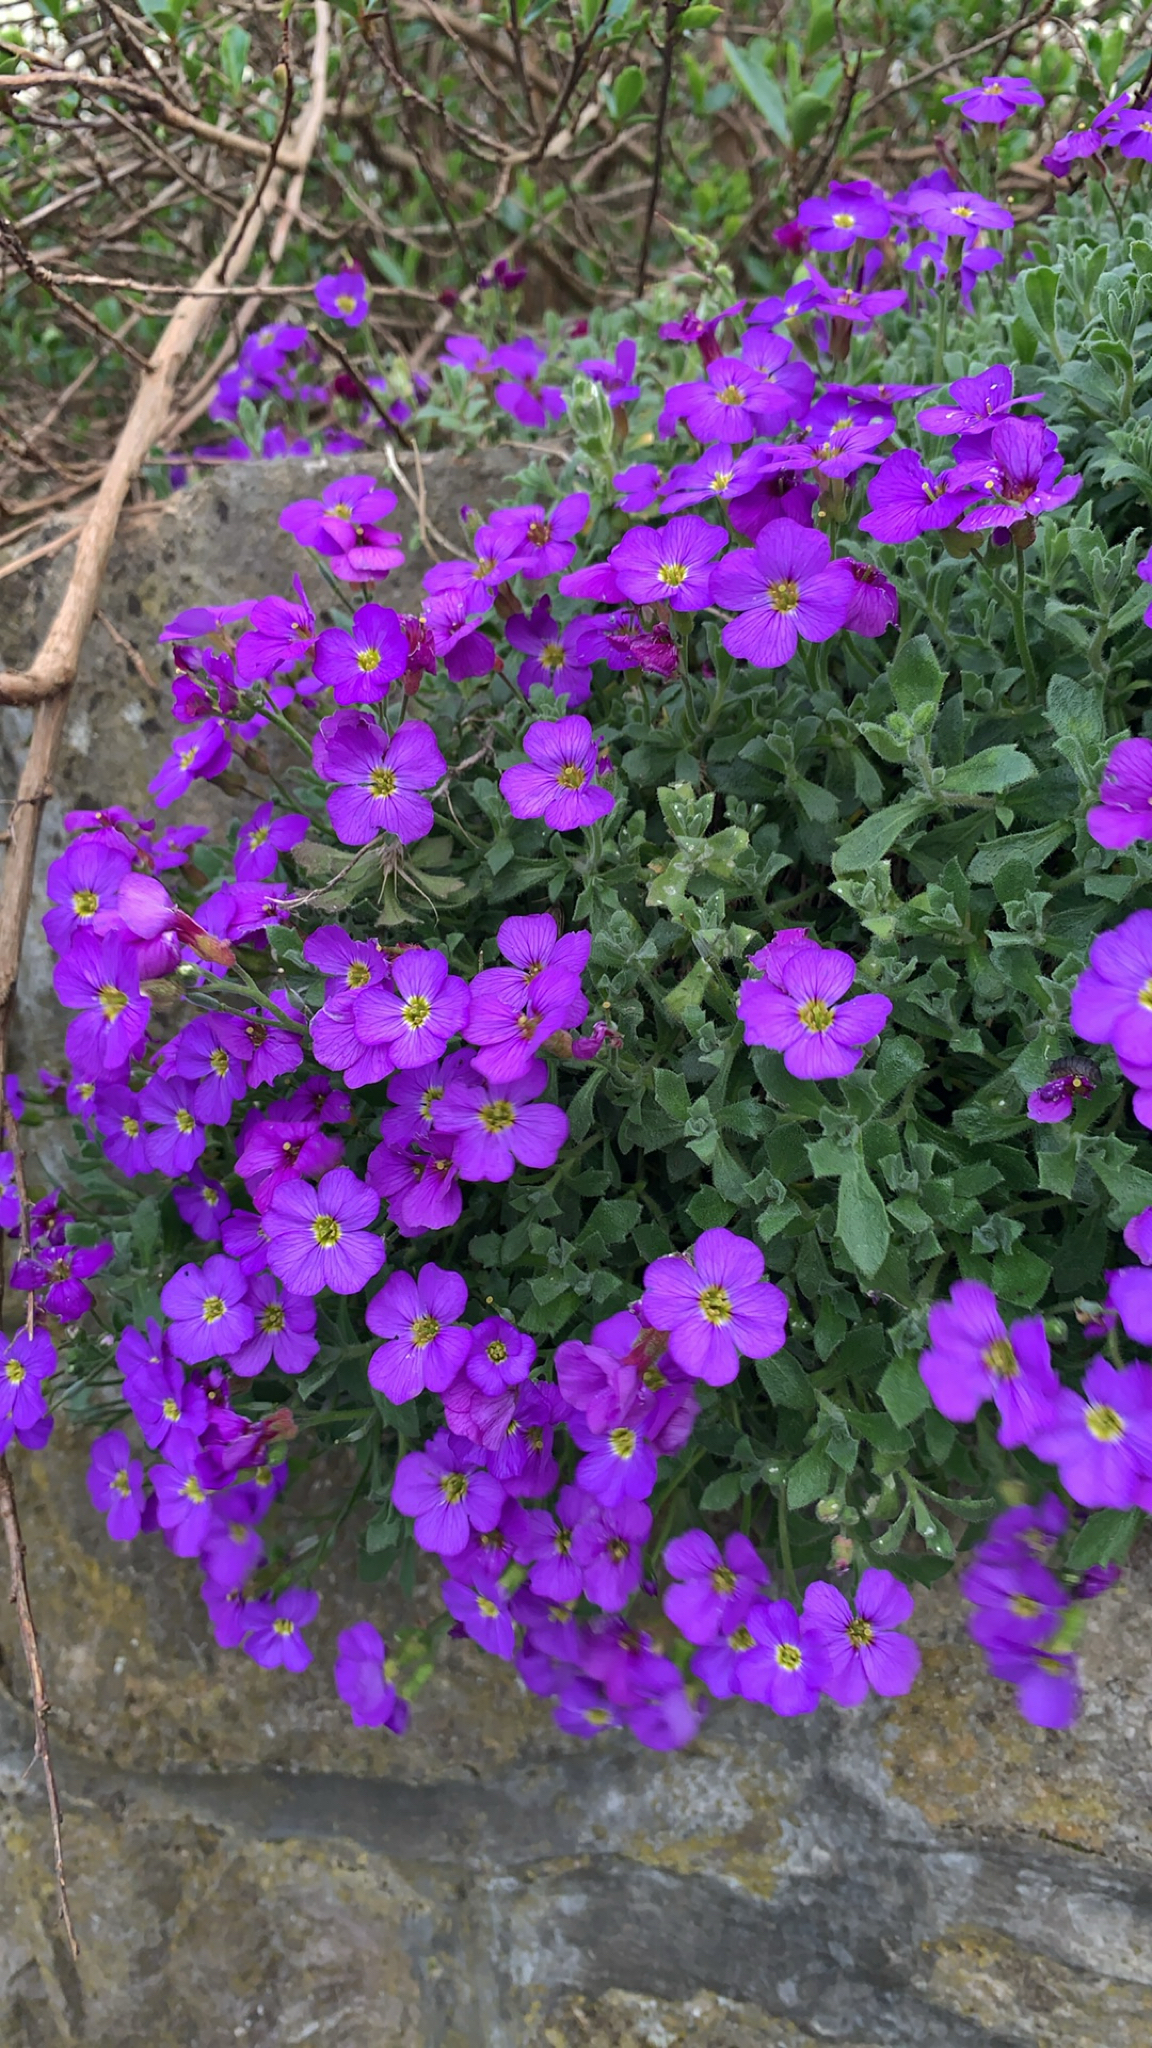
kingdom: Plantae
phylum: Tracheophyta
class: Magnoliopsida
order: Brassicales
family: Brassicaceae
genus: Aubrieta
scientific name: Aubrieta deltoidea
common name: Aubretia
